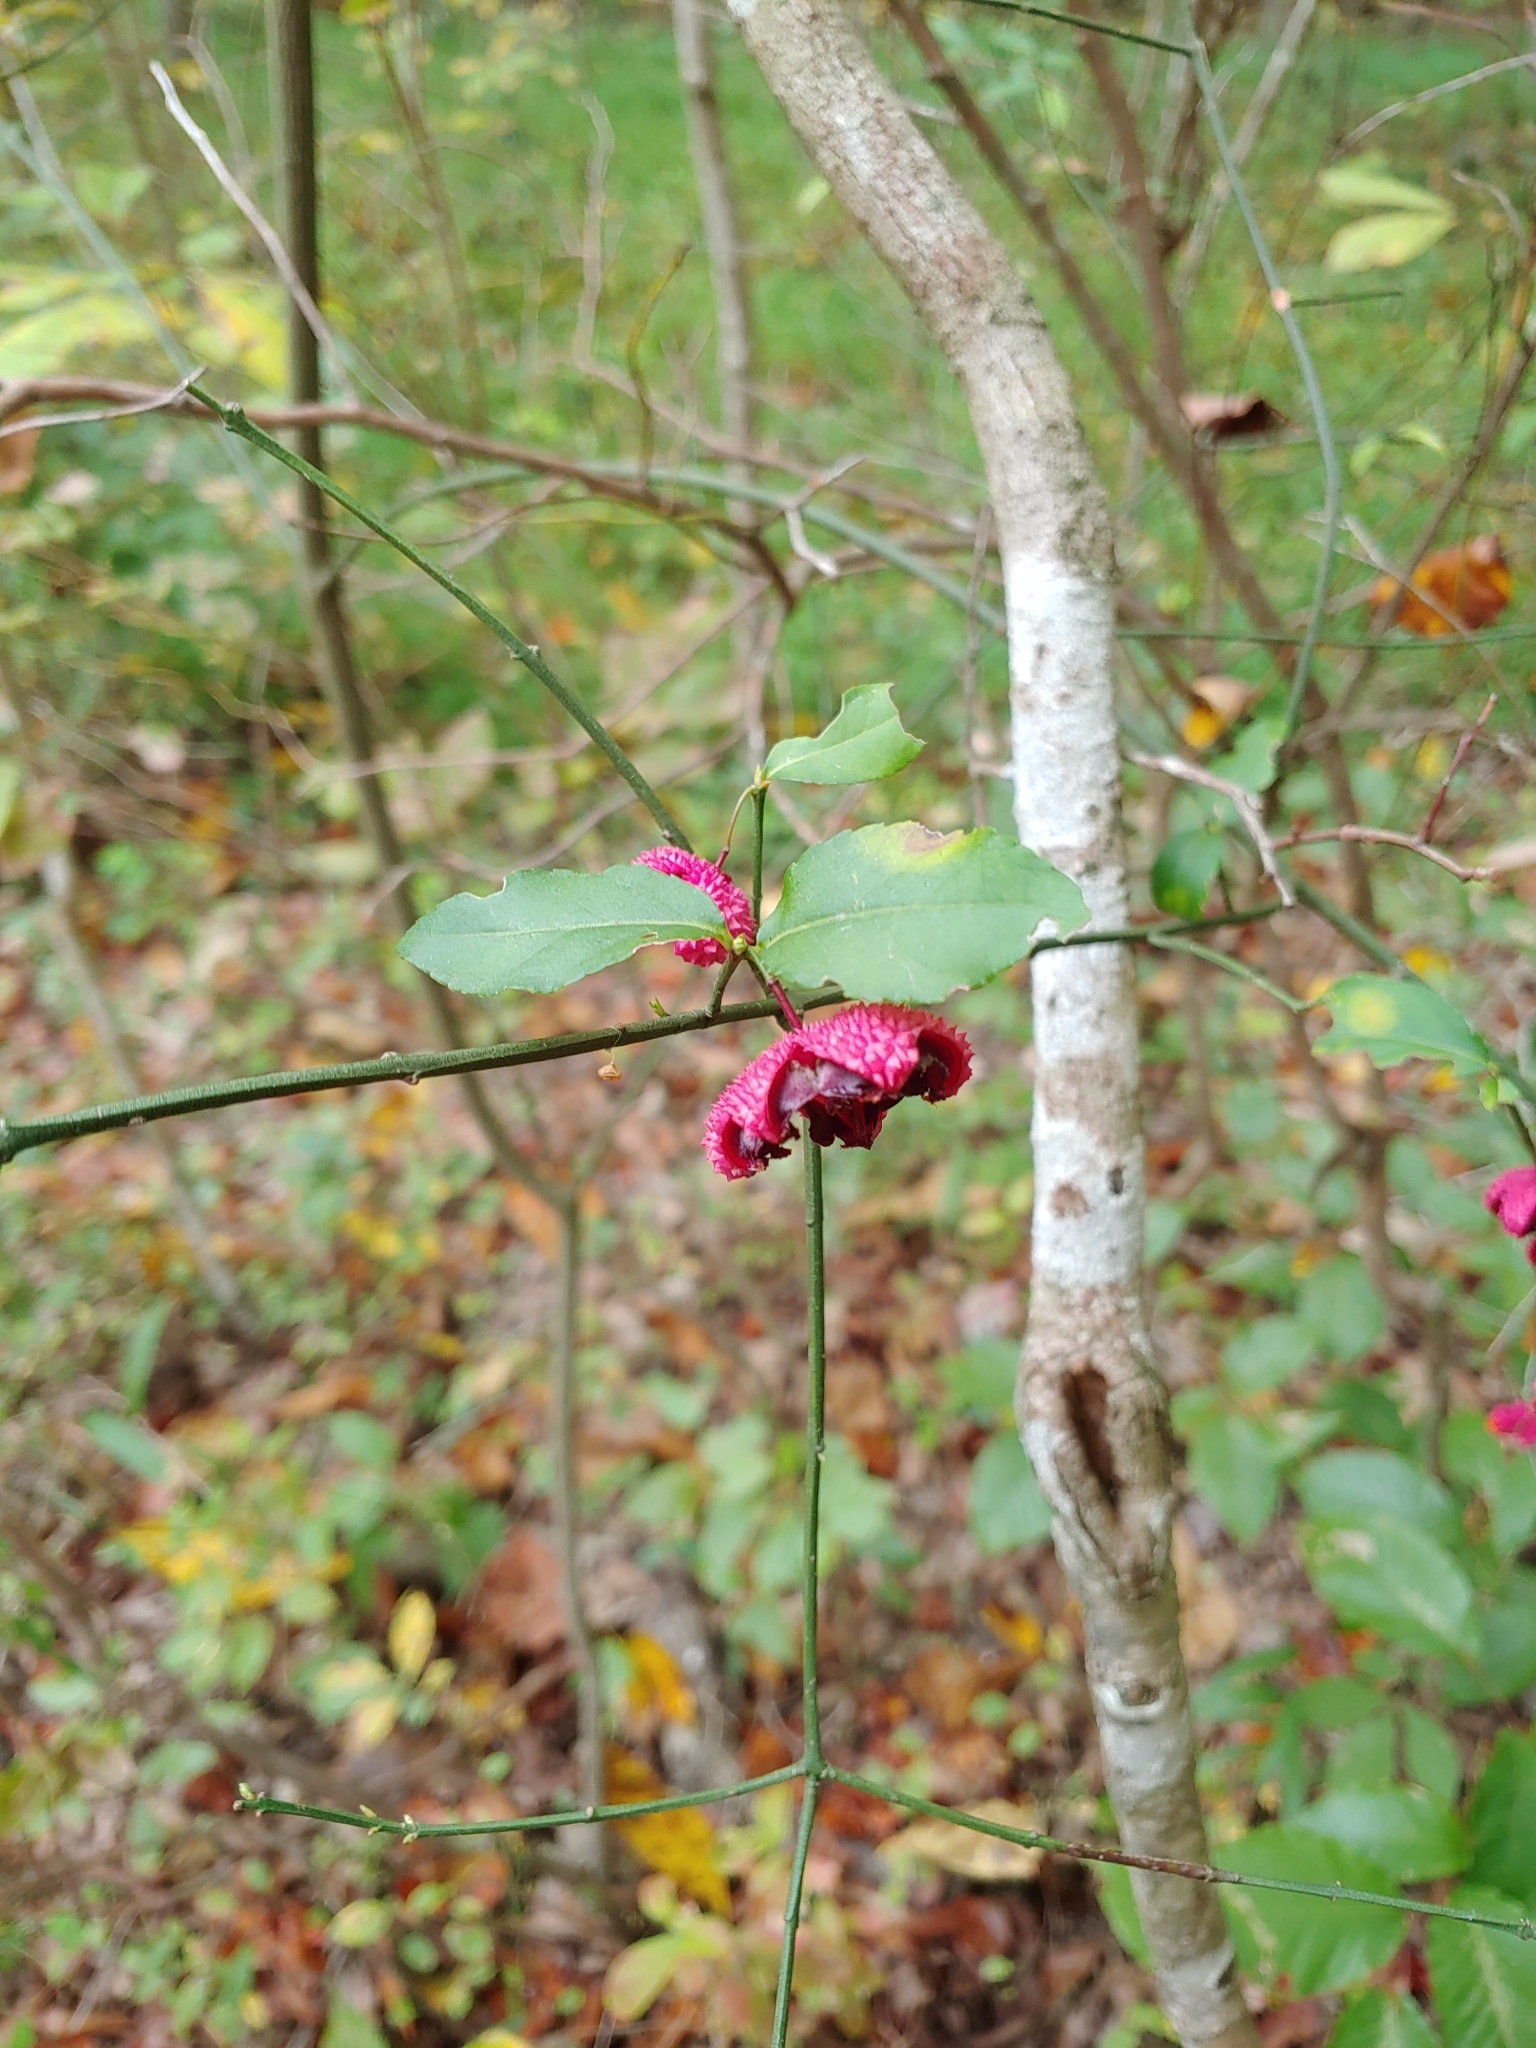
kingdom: Plantae
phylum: Tracheophyta
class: Magnoliopsida
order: Celastrales
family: Celastraceae
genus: Euonymus
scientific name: Euonymus americanus
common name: Bursting-heart
